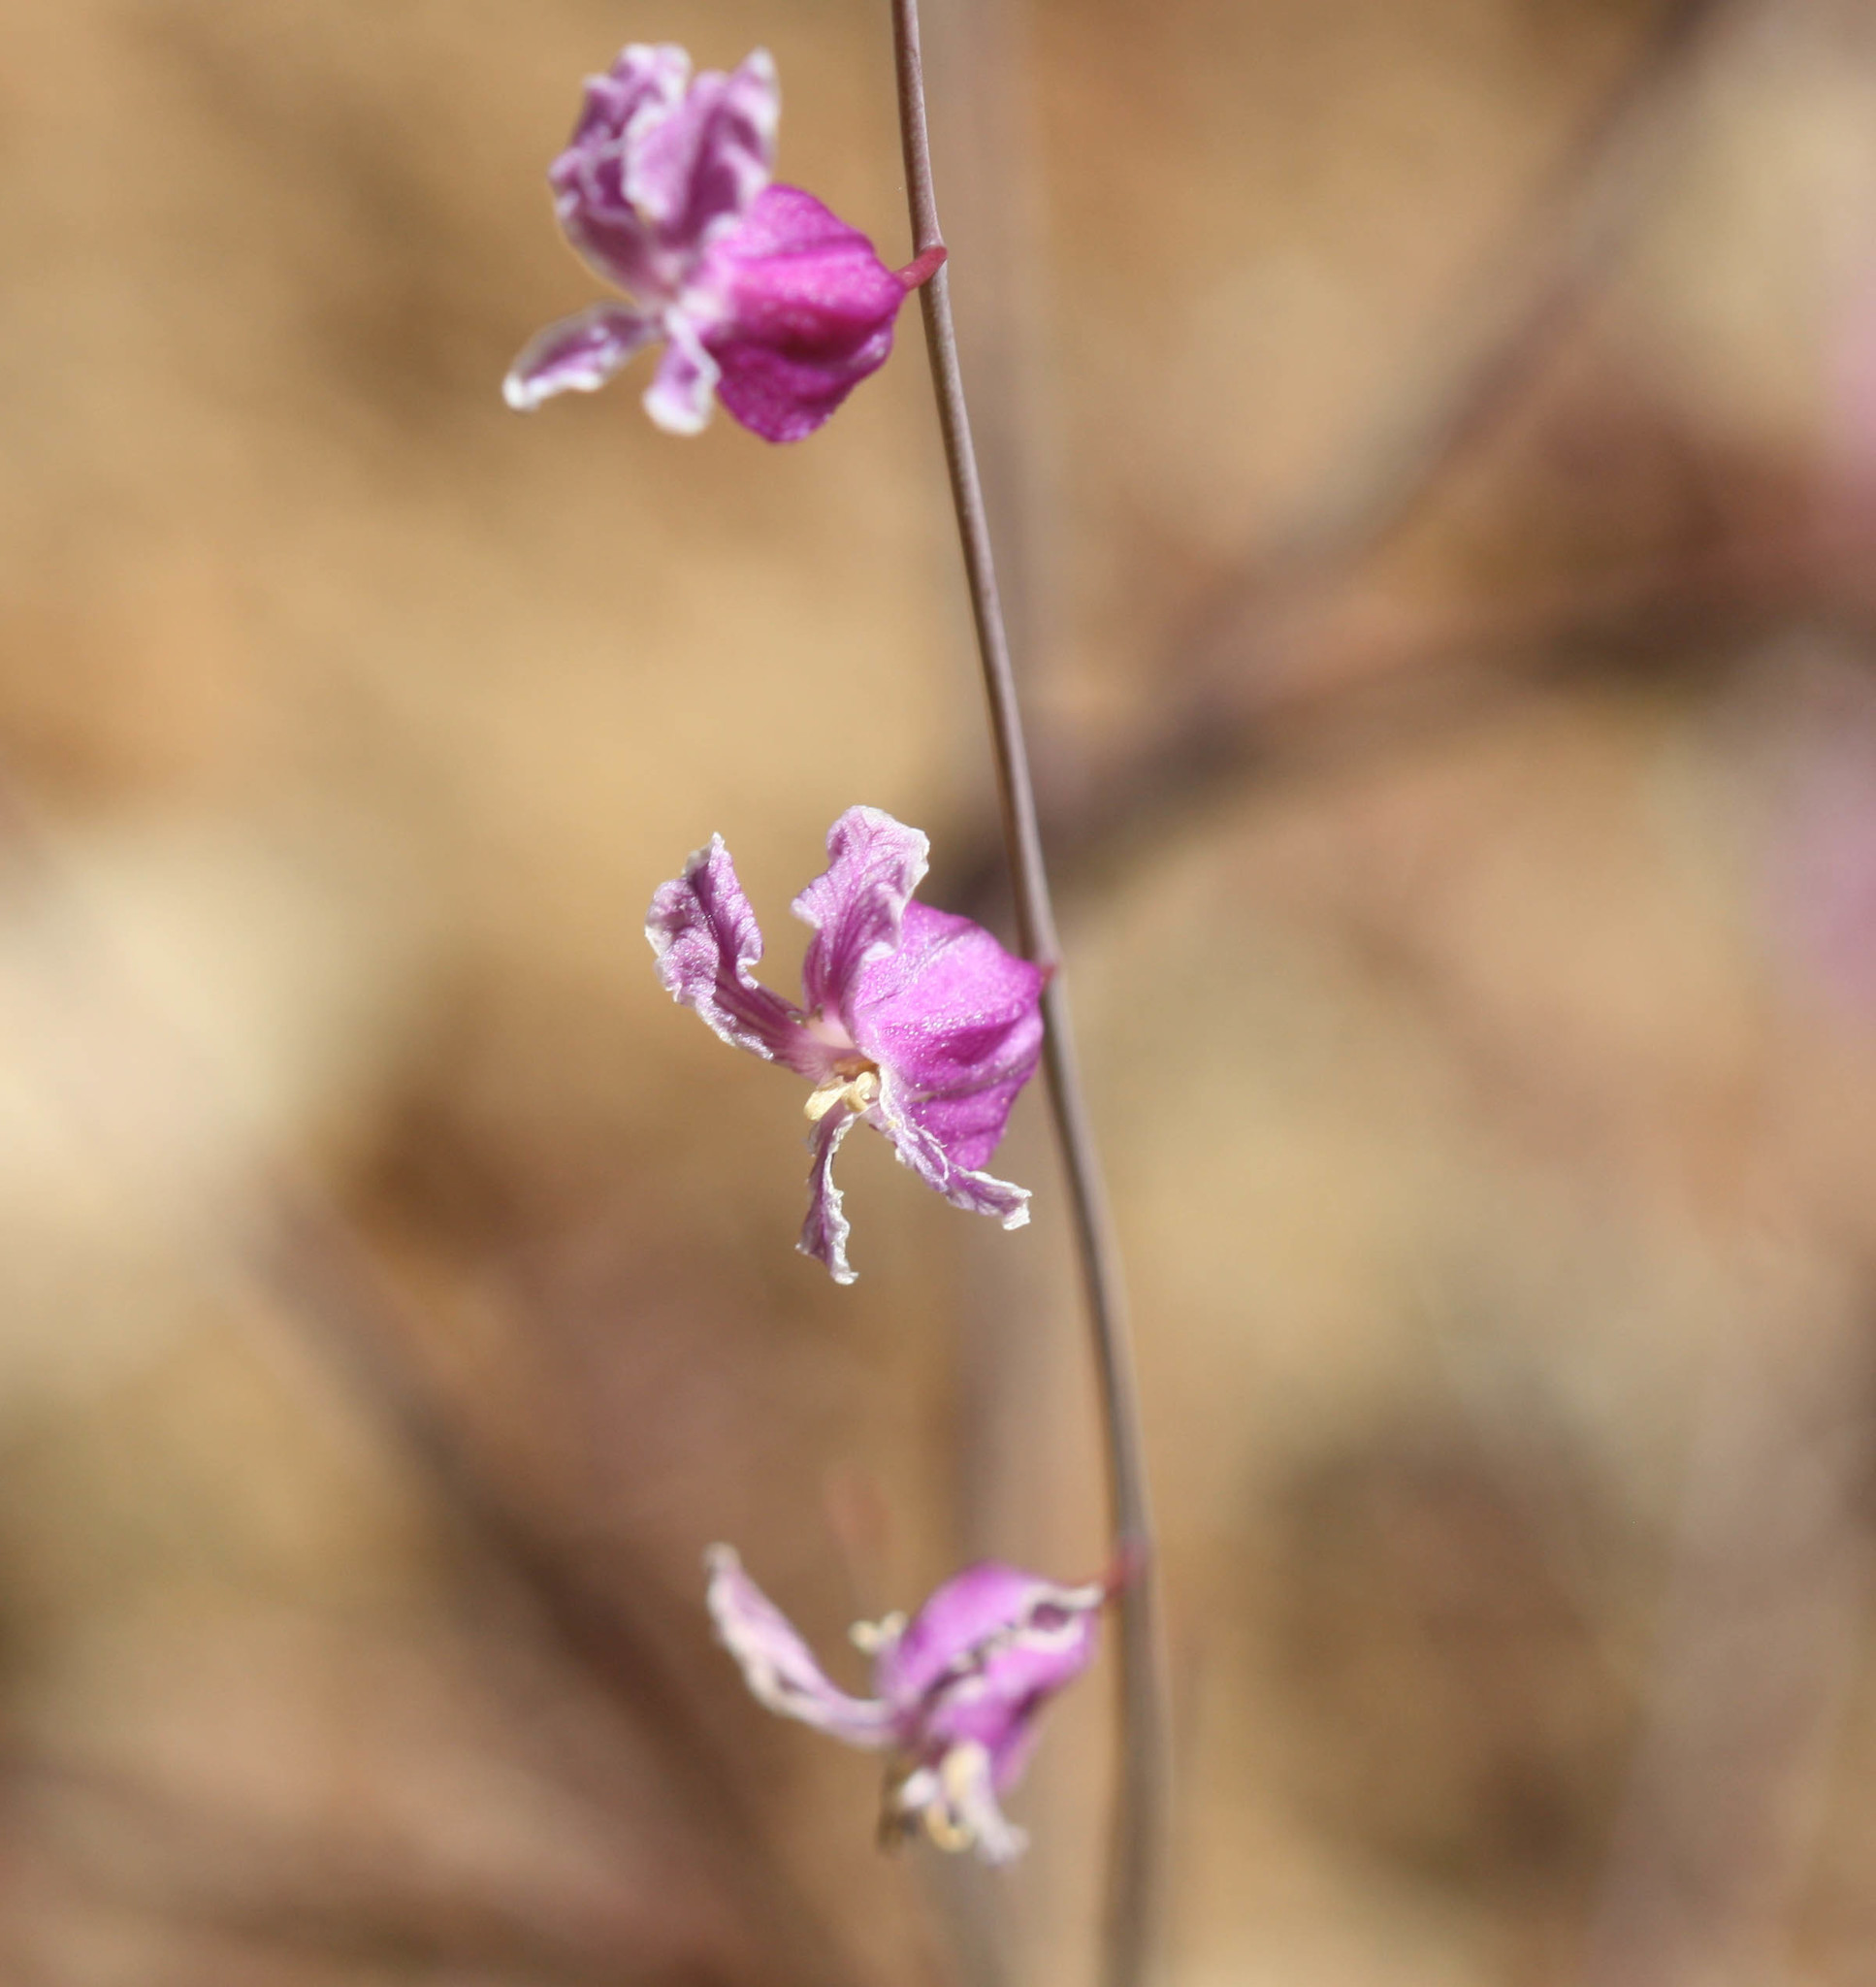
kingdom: Plantae
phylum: Tracheophyta
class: Magnoliopsida
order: Brassicales
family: Brassicaceae
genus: Streptanthus
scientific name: Streptanthus glandulosus
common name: Jewel-flower
